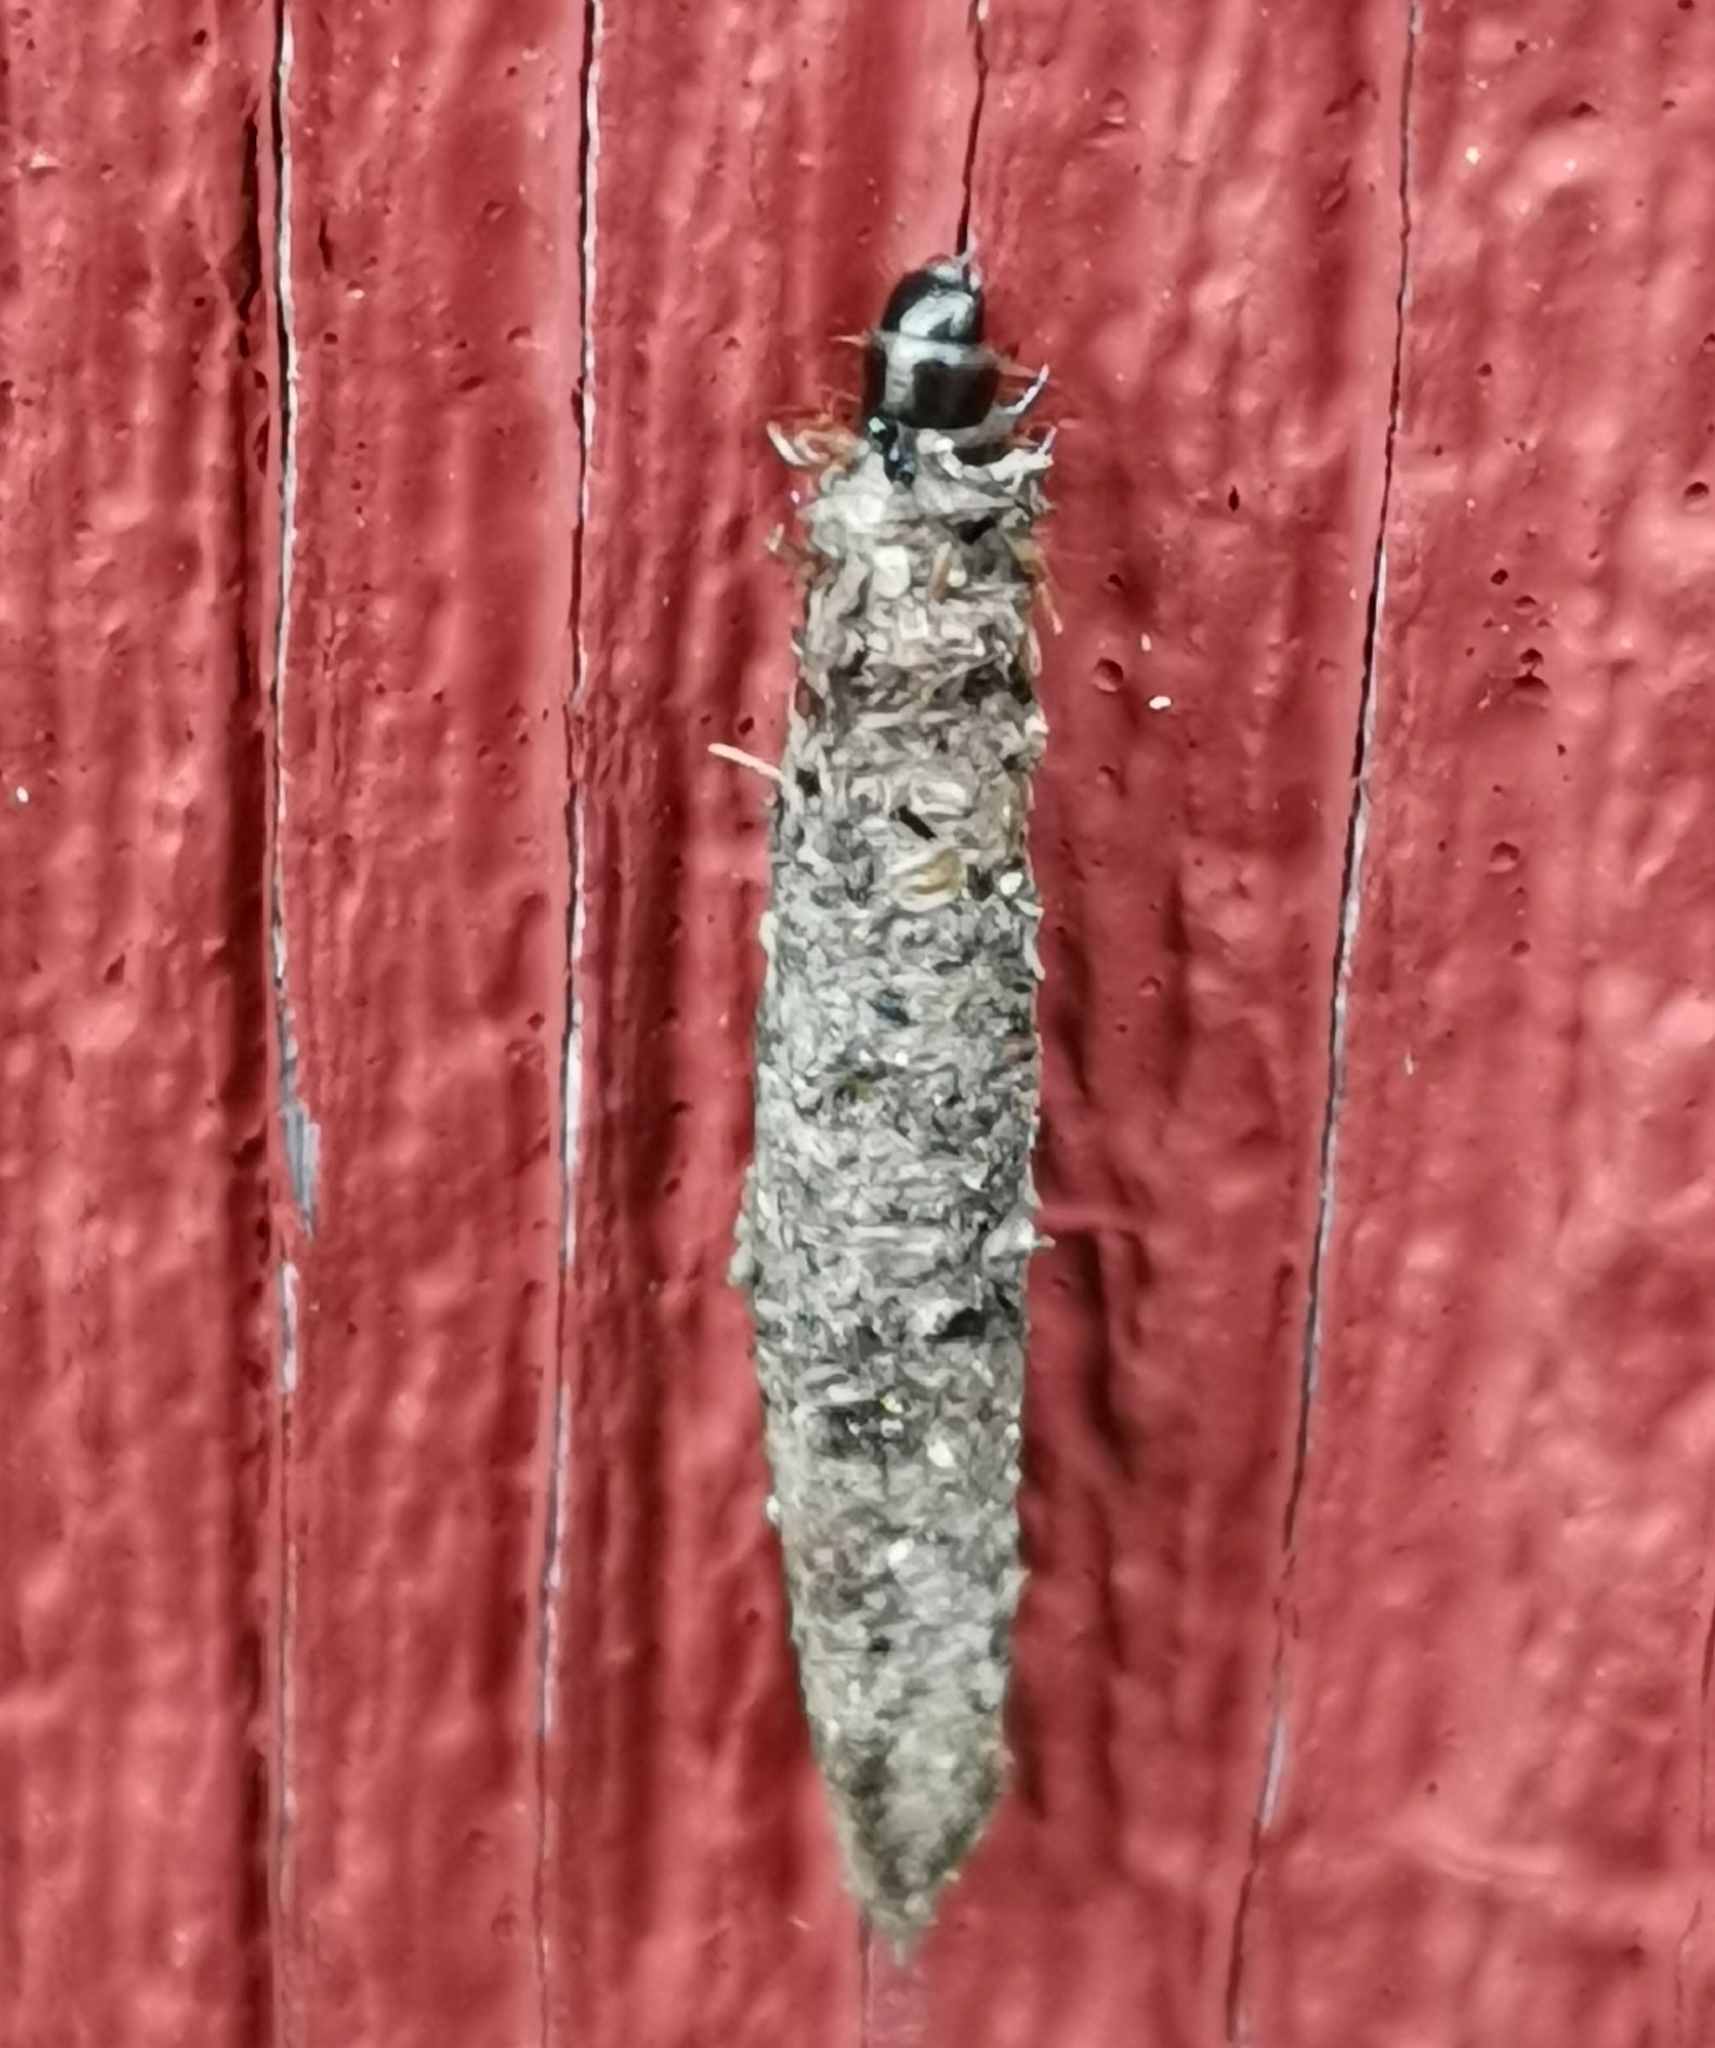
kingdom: Animalia
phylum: Arthropoda
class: Insecta
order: Lepidoptera
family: Psychidae
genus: Taleporia
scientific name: Taleporia tubulosa
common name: Brown smoke
